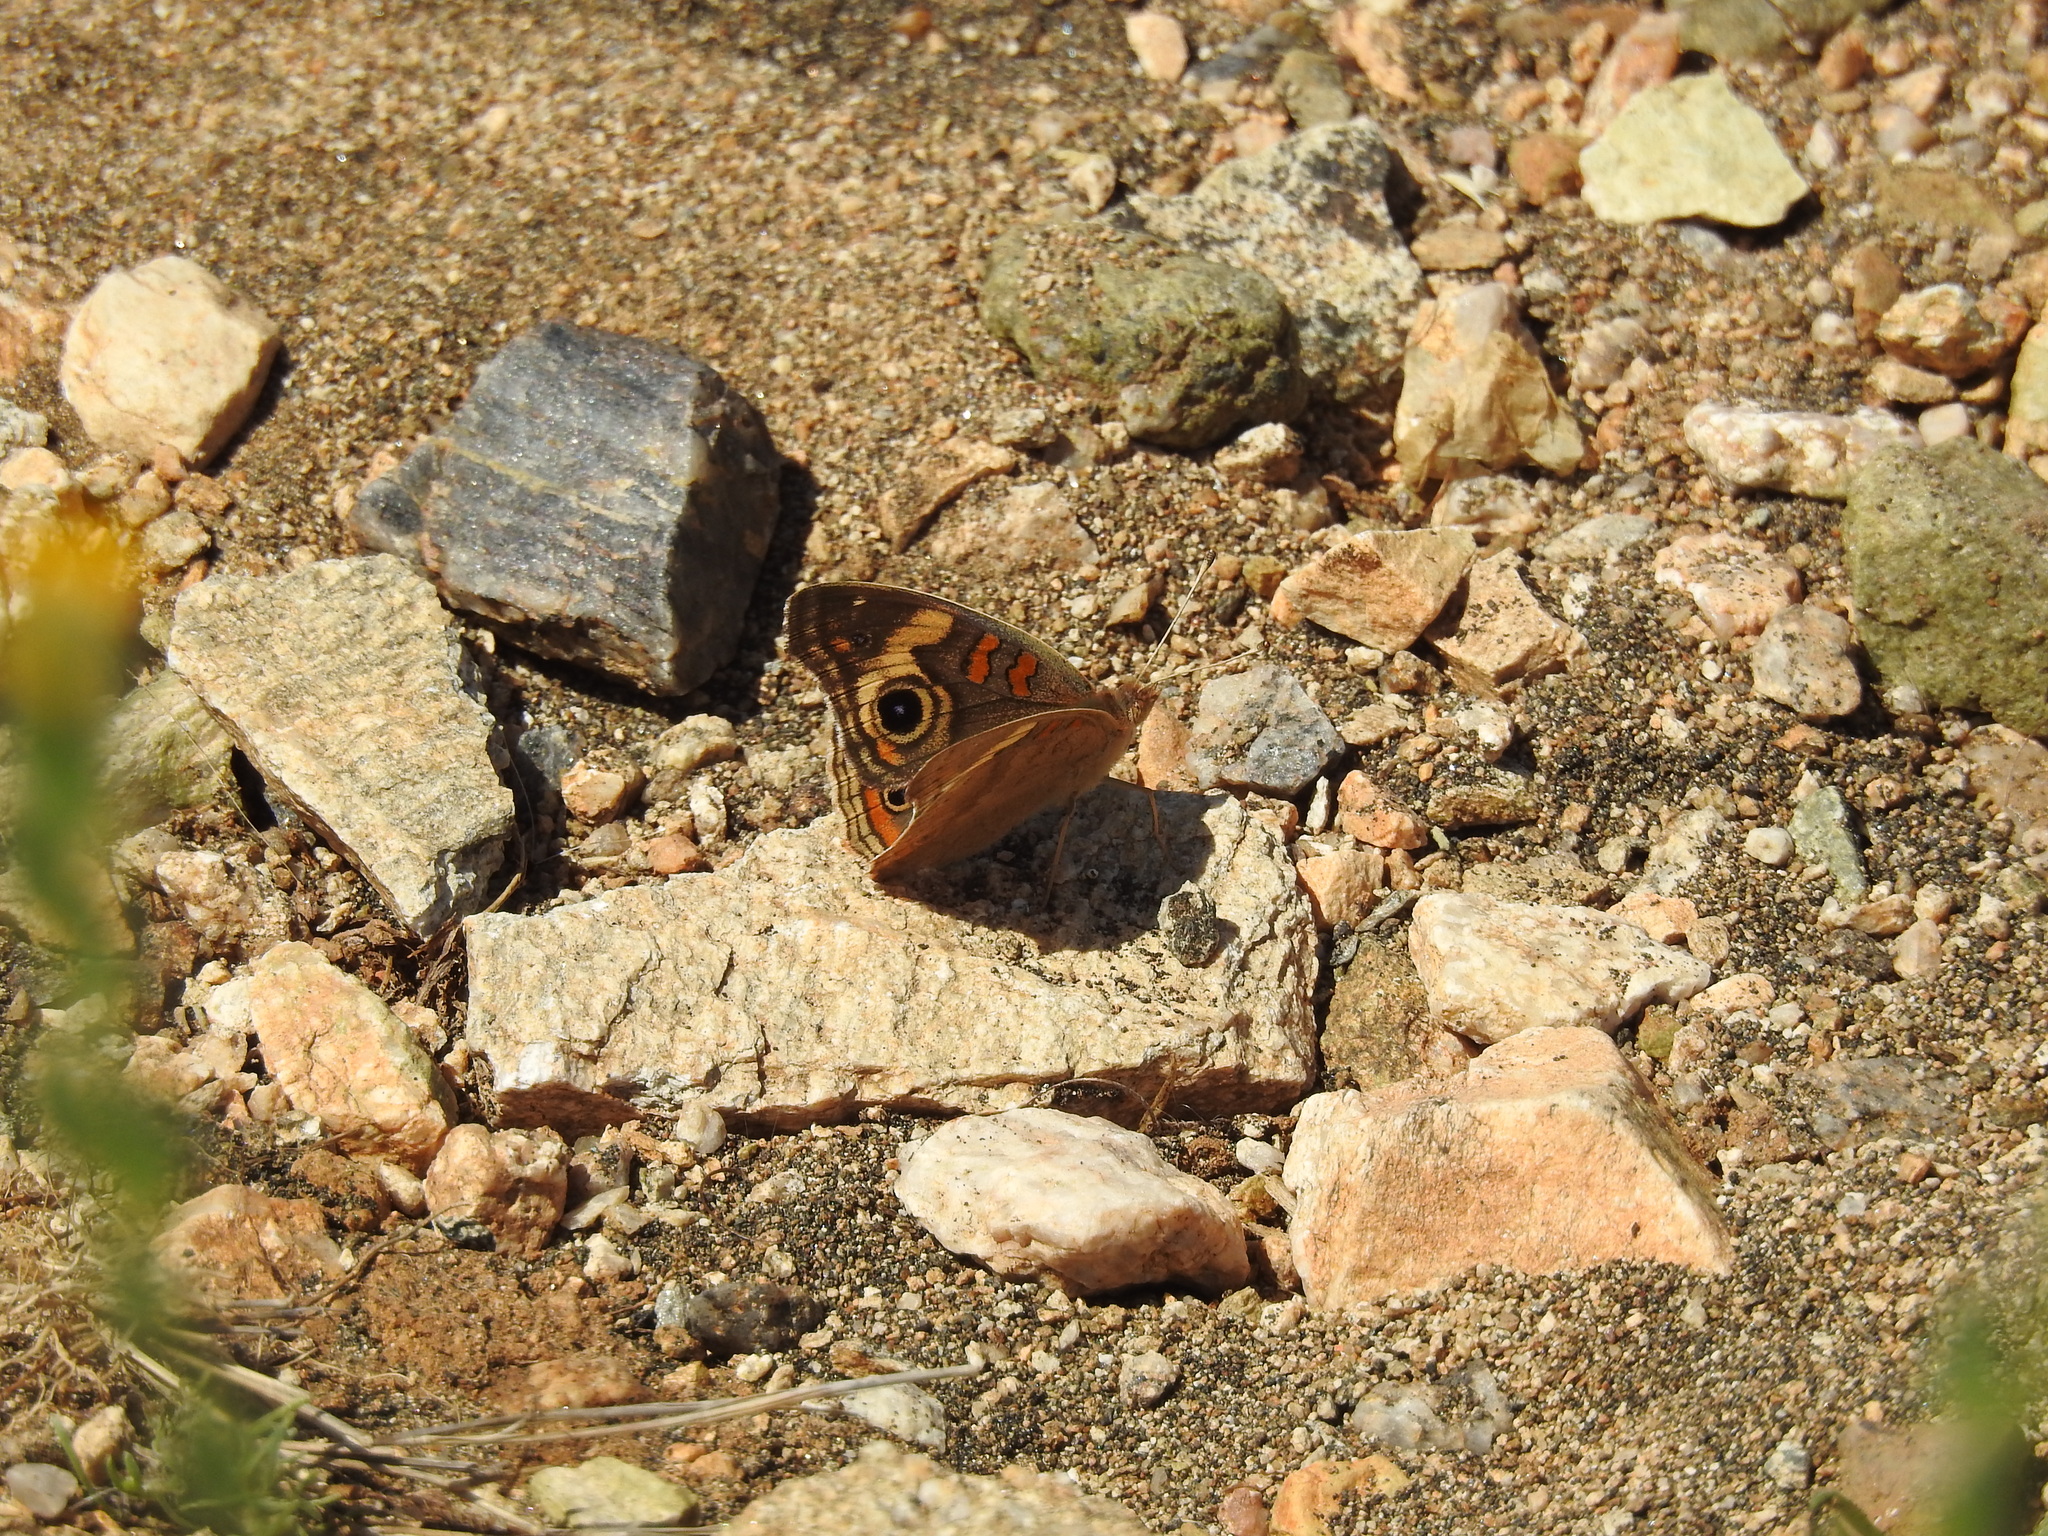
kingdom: Animalia
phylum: Arthropoda
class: Insecta
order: Lepidoptera
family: Nymphalidae
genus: Junonia
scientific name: Junonia grisea
